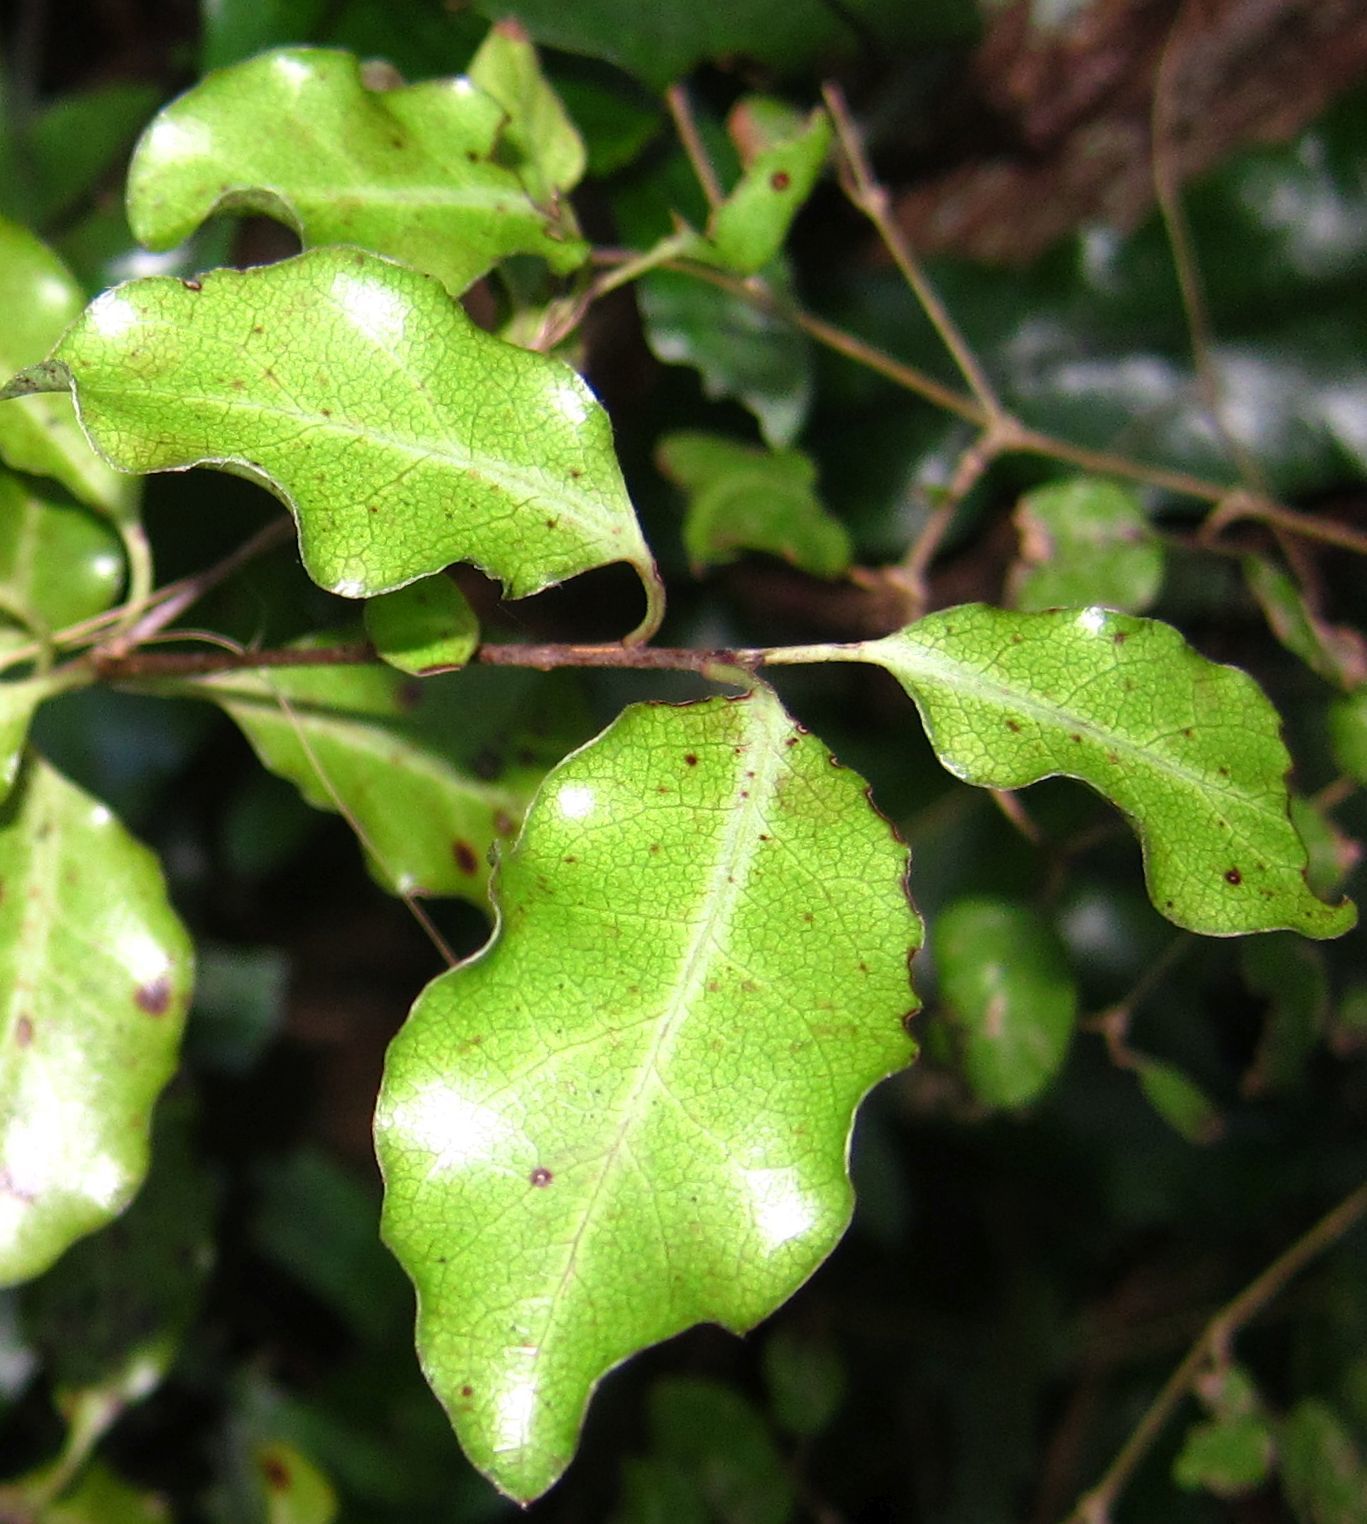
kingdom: Plantae
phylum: Tracheophyta
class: Magnoliopsida
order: Apiales
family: Pittosporaceae
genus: Pittosporum
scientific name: Pittosporum tenuifolium
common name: Kohuhu
